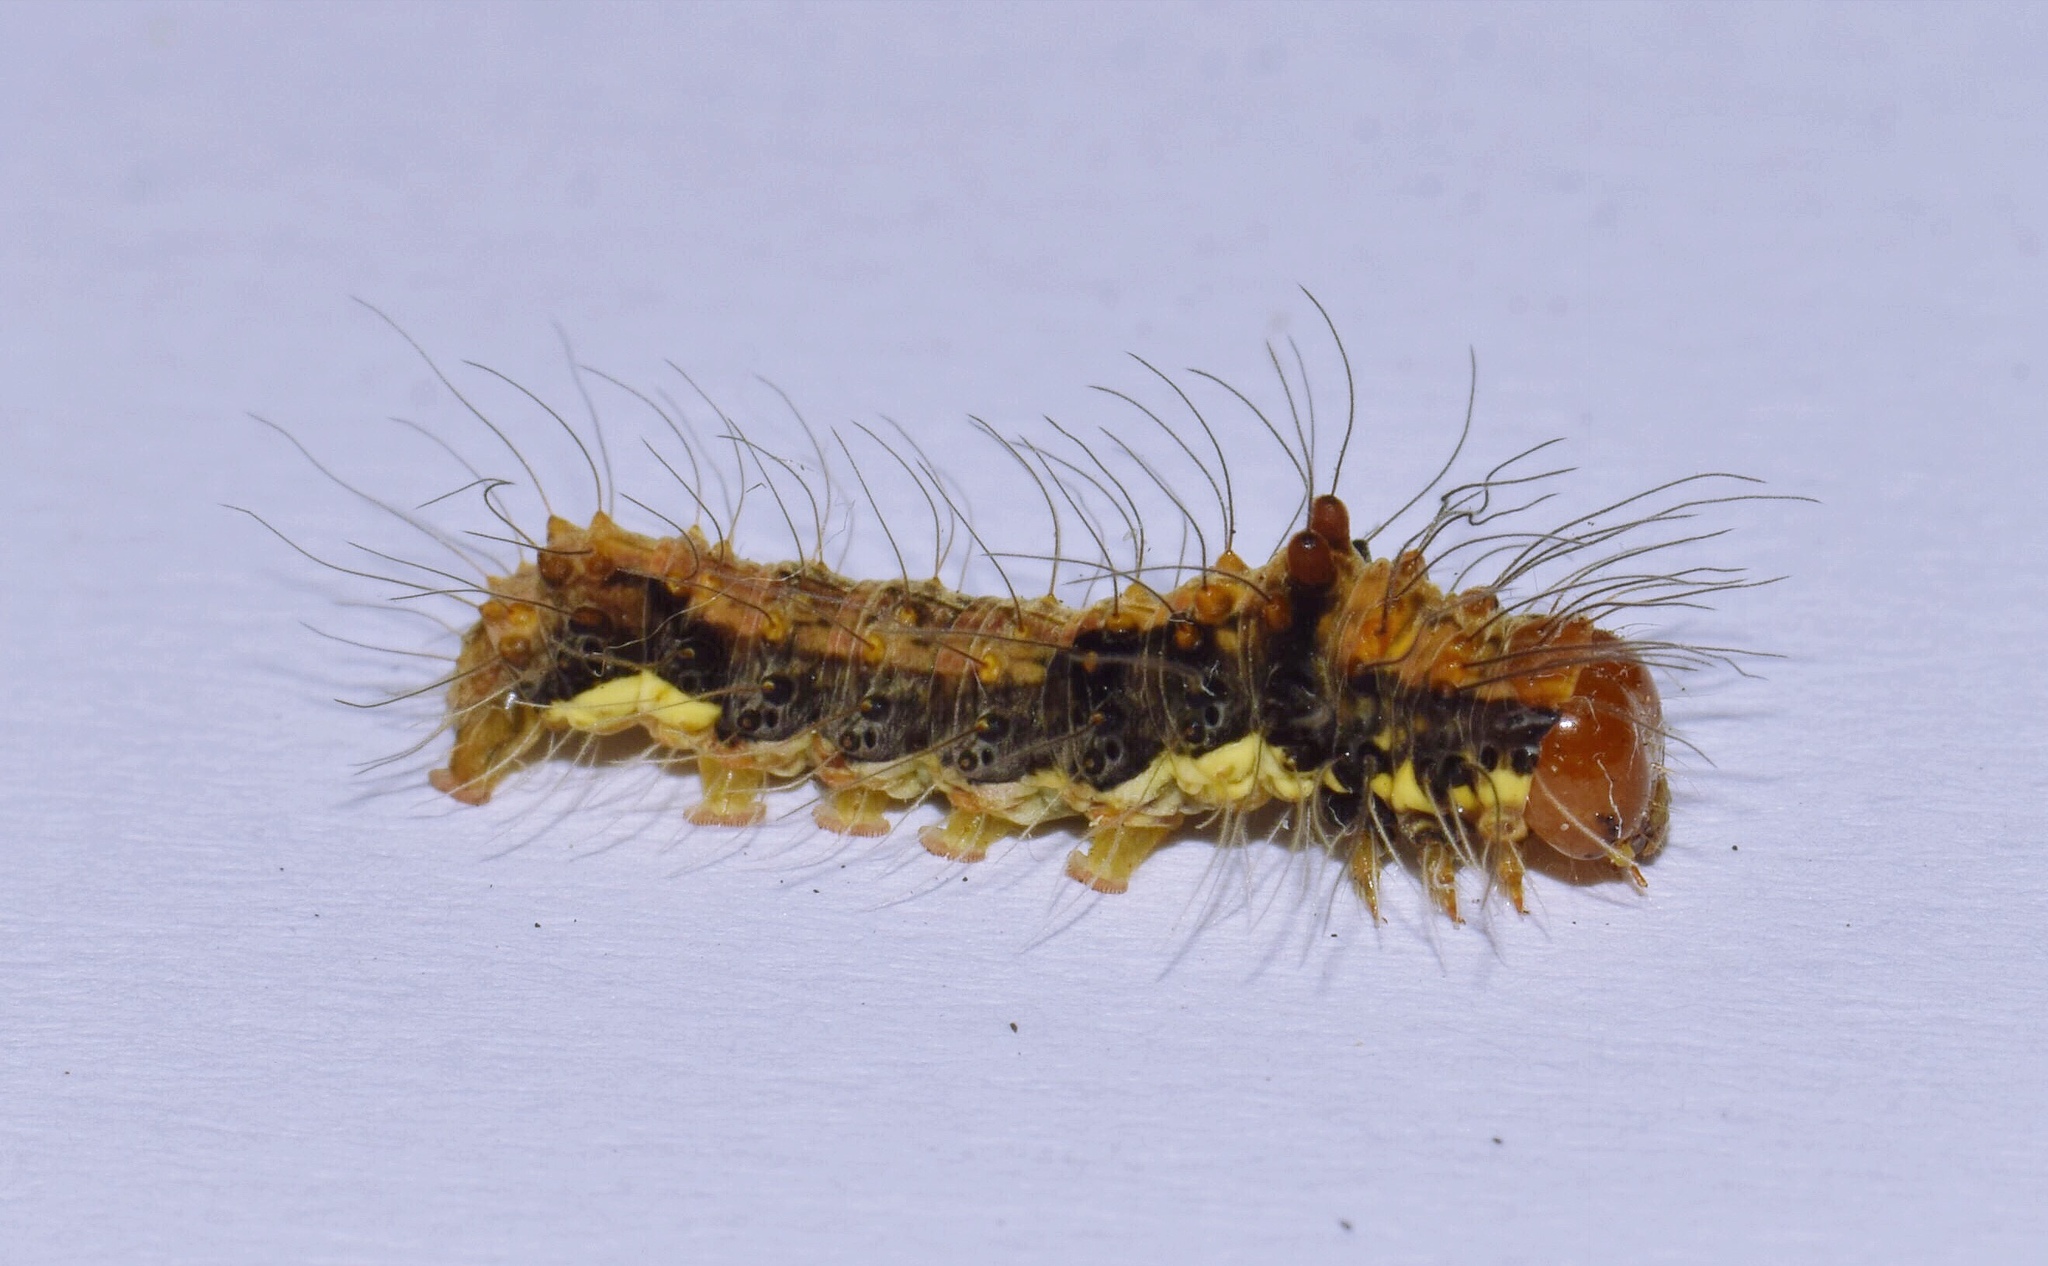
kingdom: Animalia
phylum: Arthropoda
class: Insecta
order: Lepidoptera
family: Erebidae
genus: Digama
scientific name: Digama aganais
